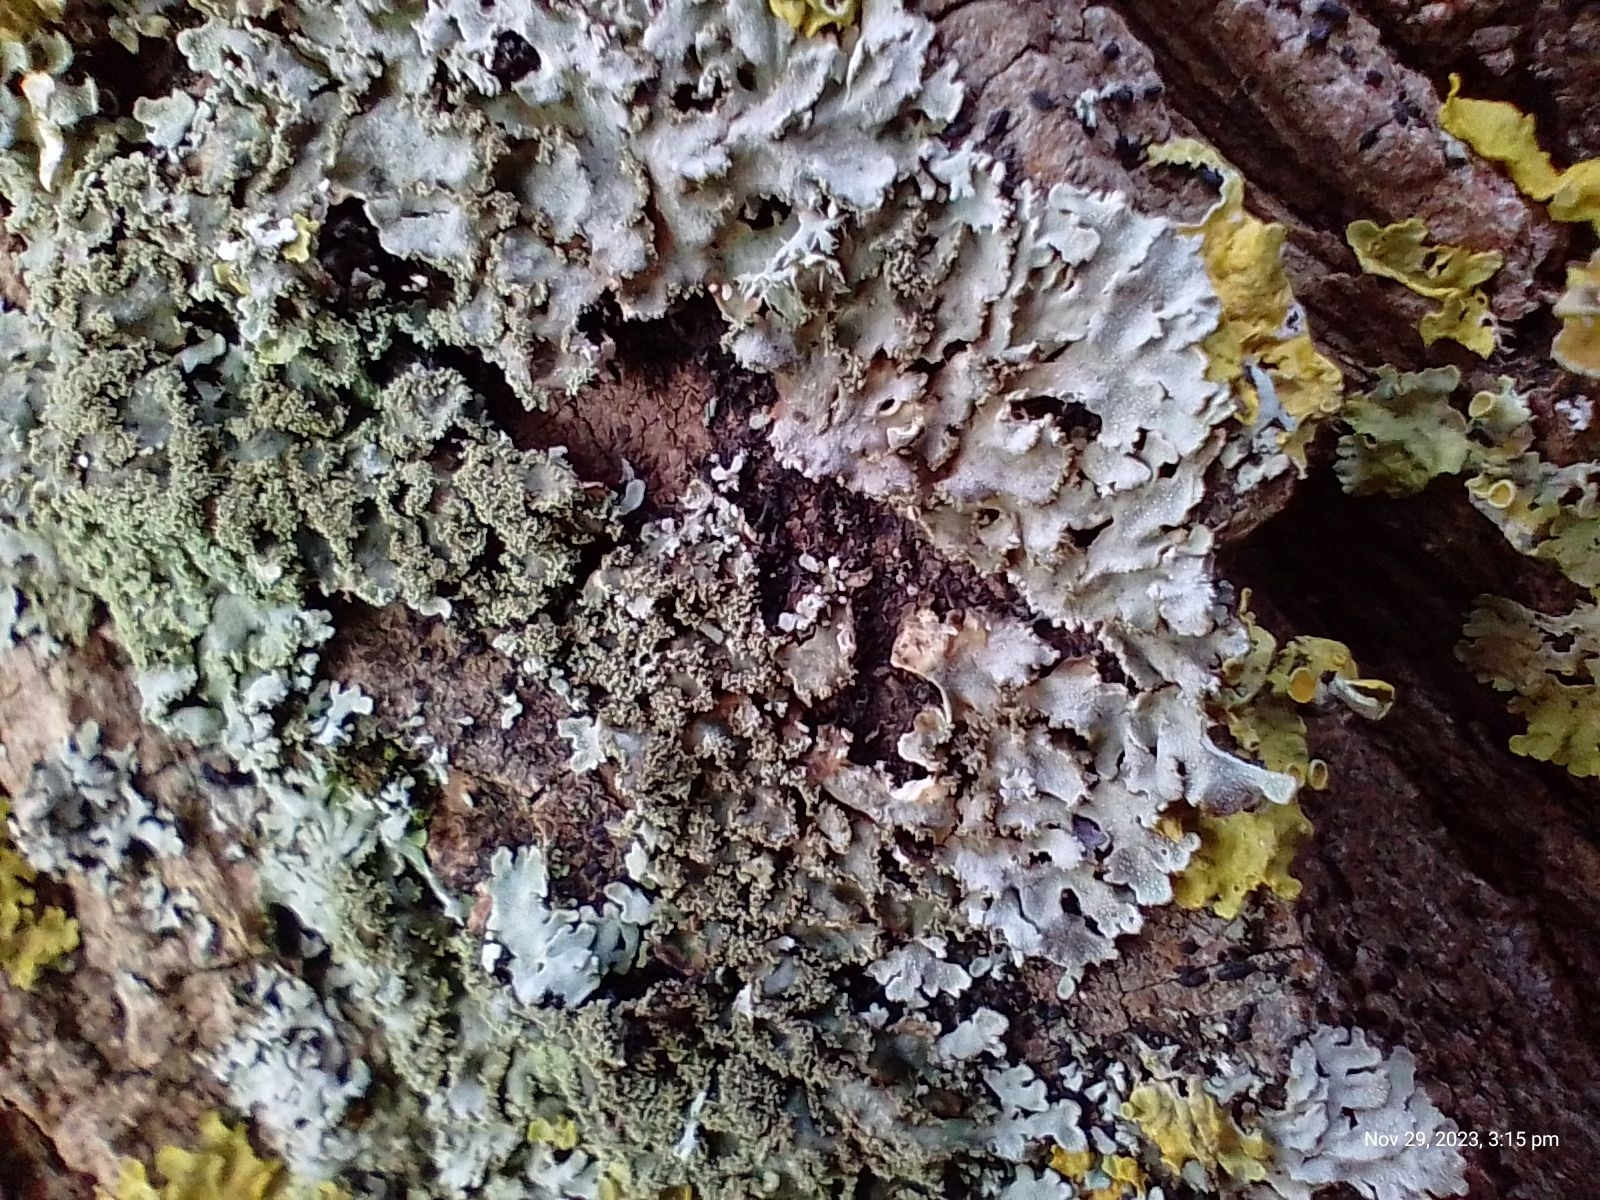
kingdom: Fungi
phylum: Ascomycota
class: Lecanoromycetes
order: Caliciales
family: Physciaceae
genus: Poeltonia
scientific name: Poeltonia grisea
